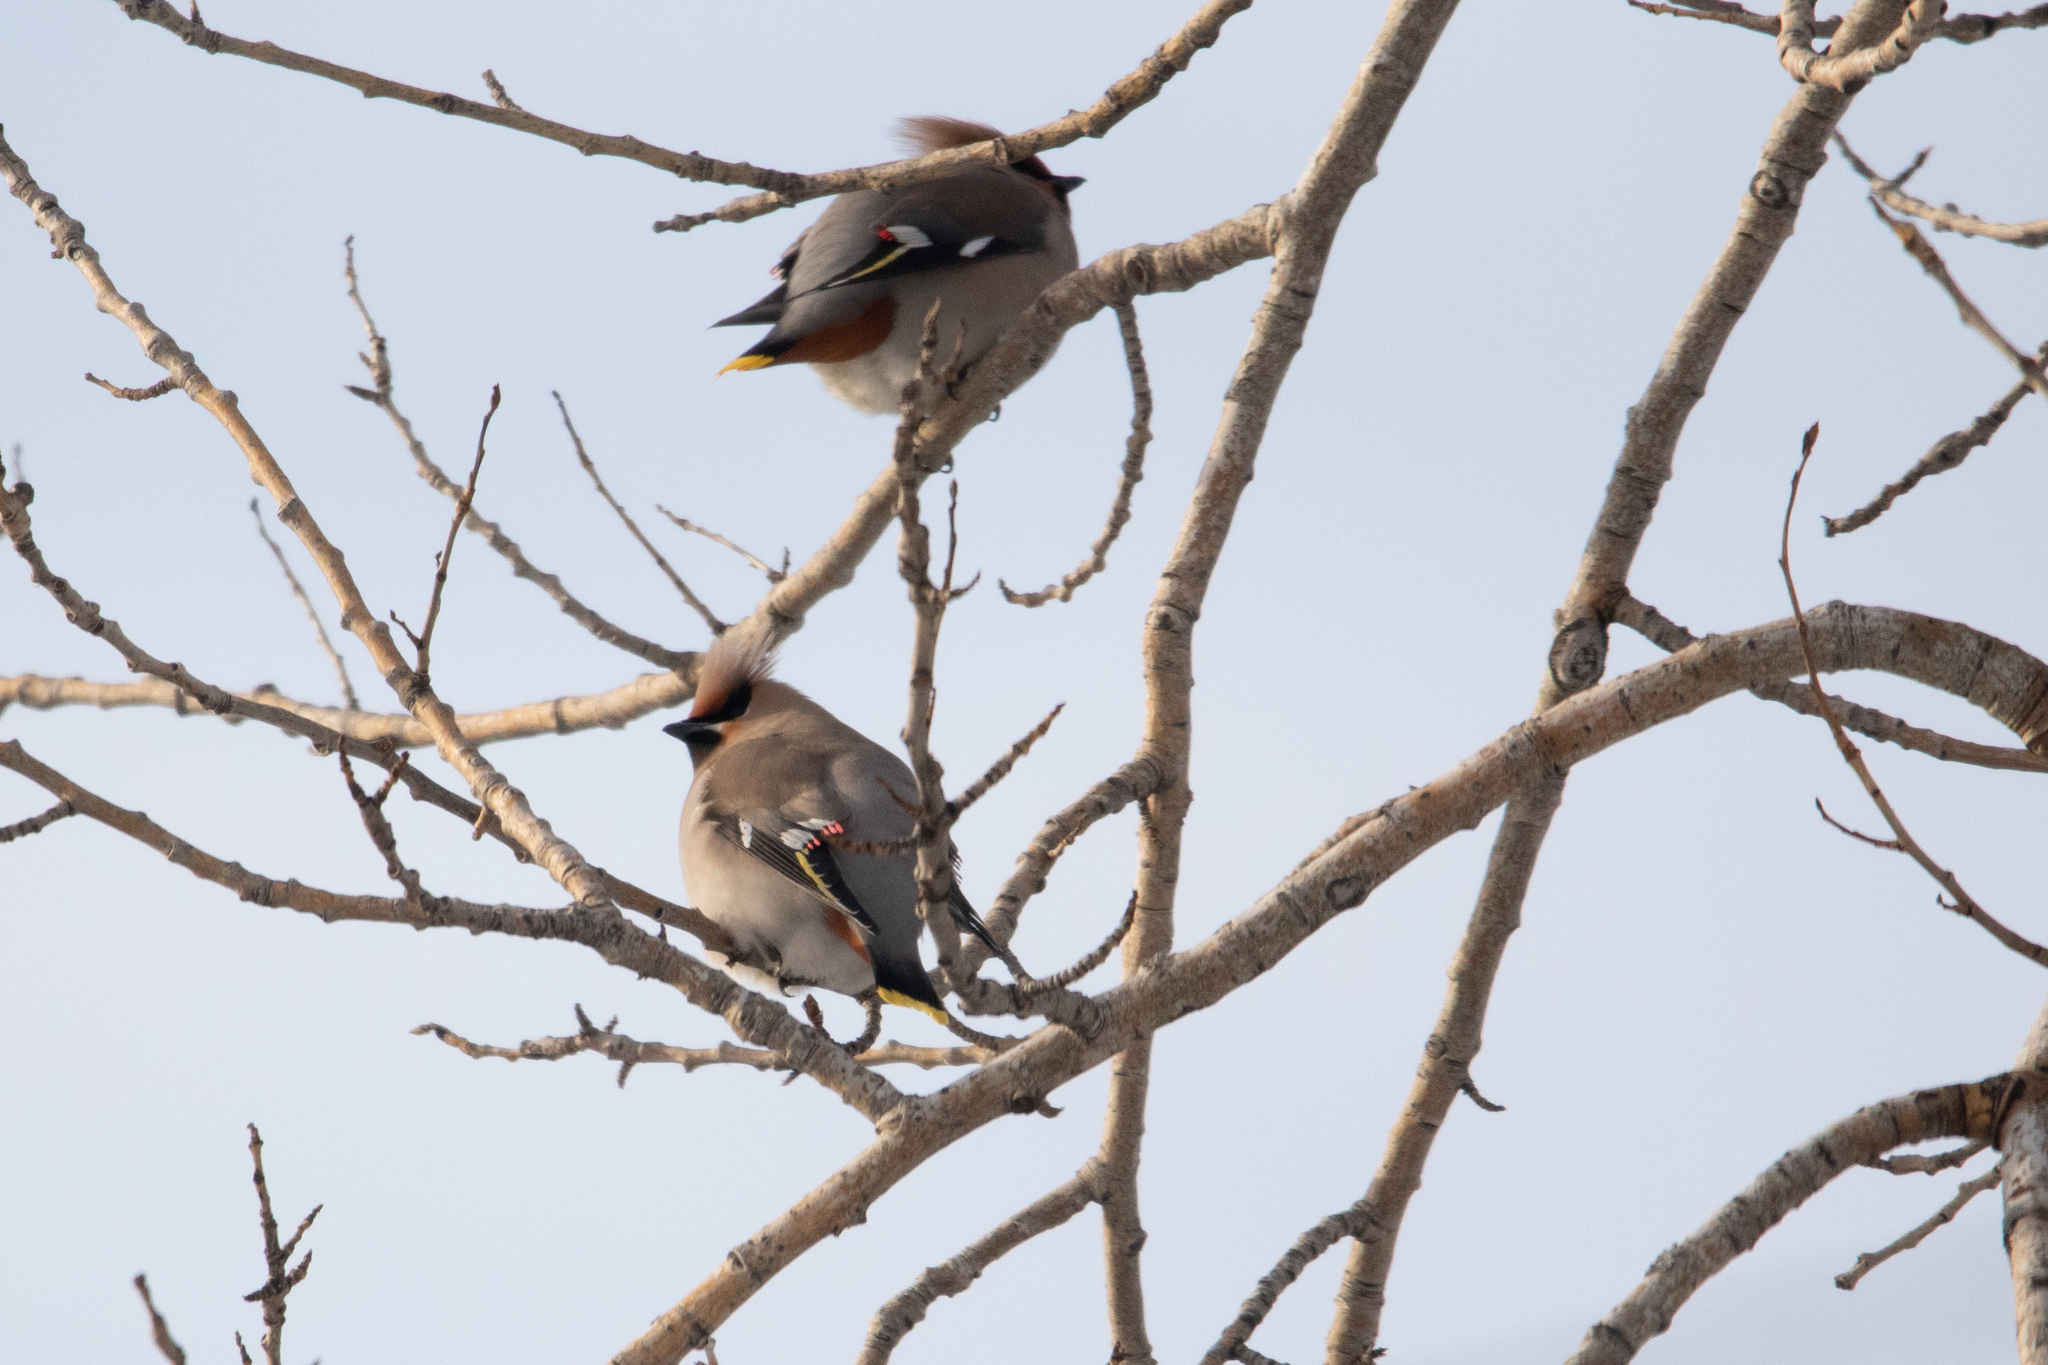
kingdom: Animalia
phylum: Chordata
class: Aves
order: Passeriformes
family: Bombycillidae
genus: Bombycilla
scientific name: Bombycilla garrulus
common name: Bohemian waxwing
